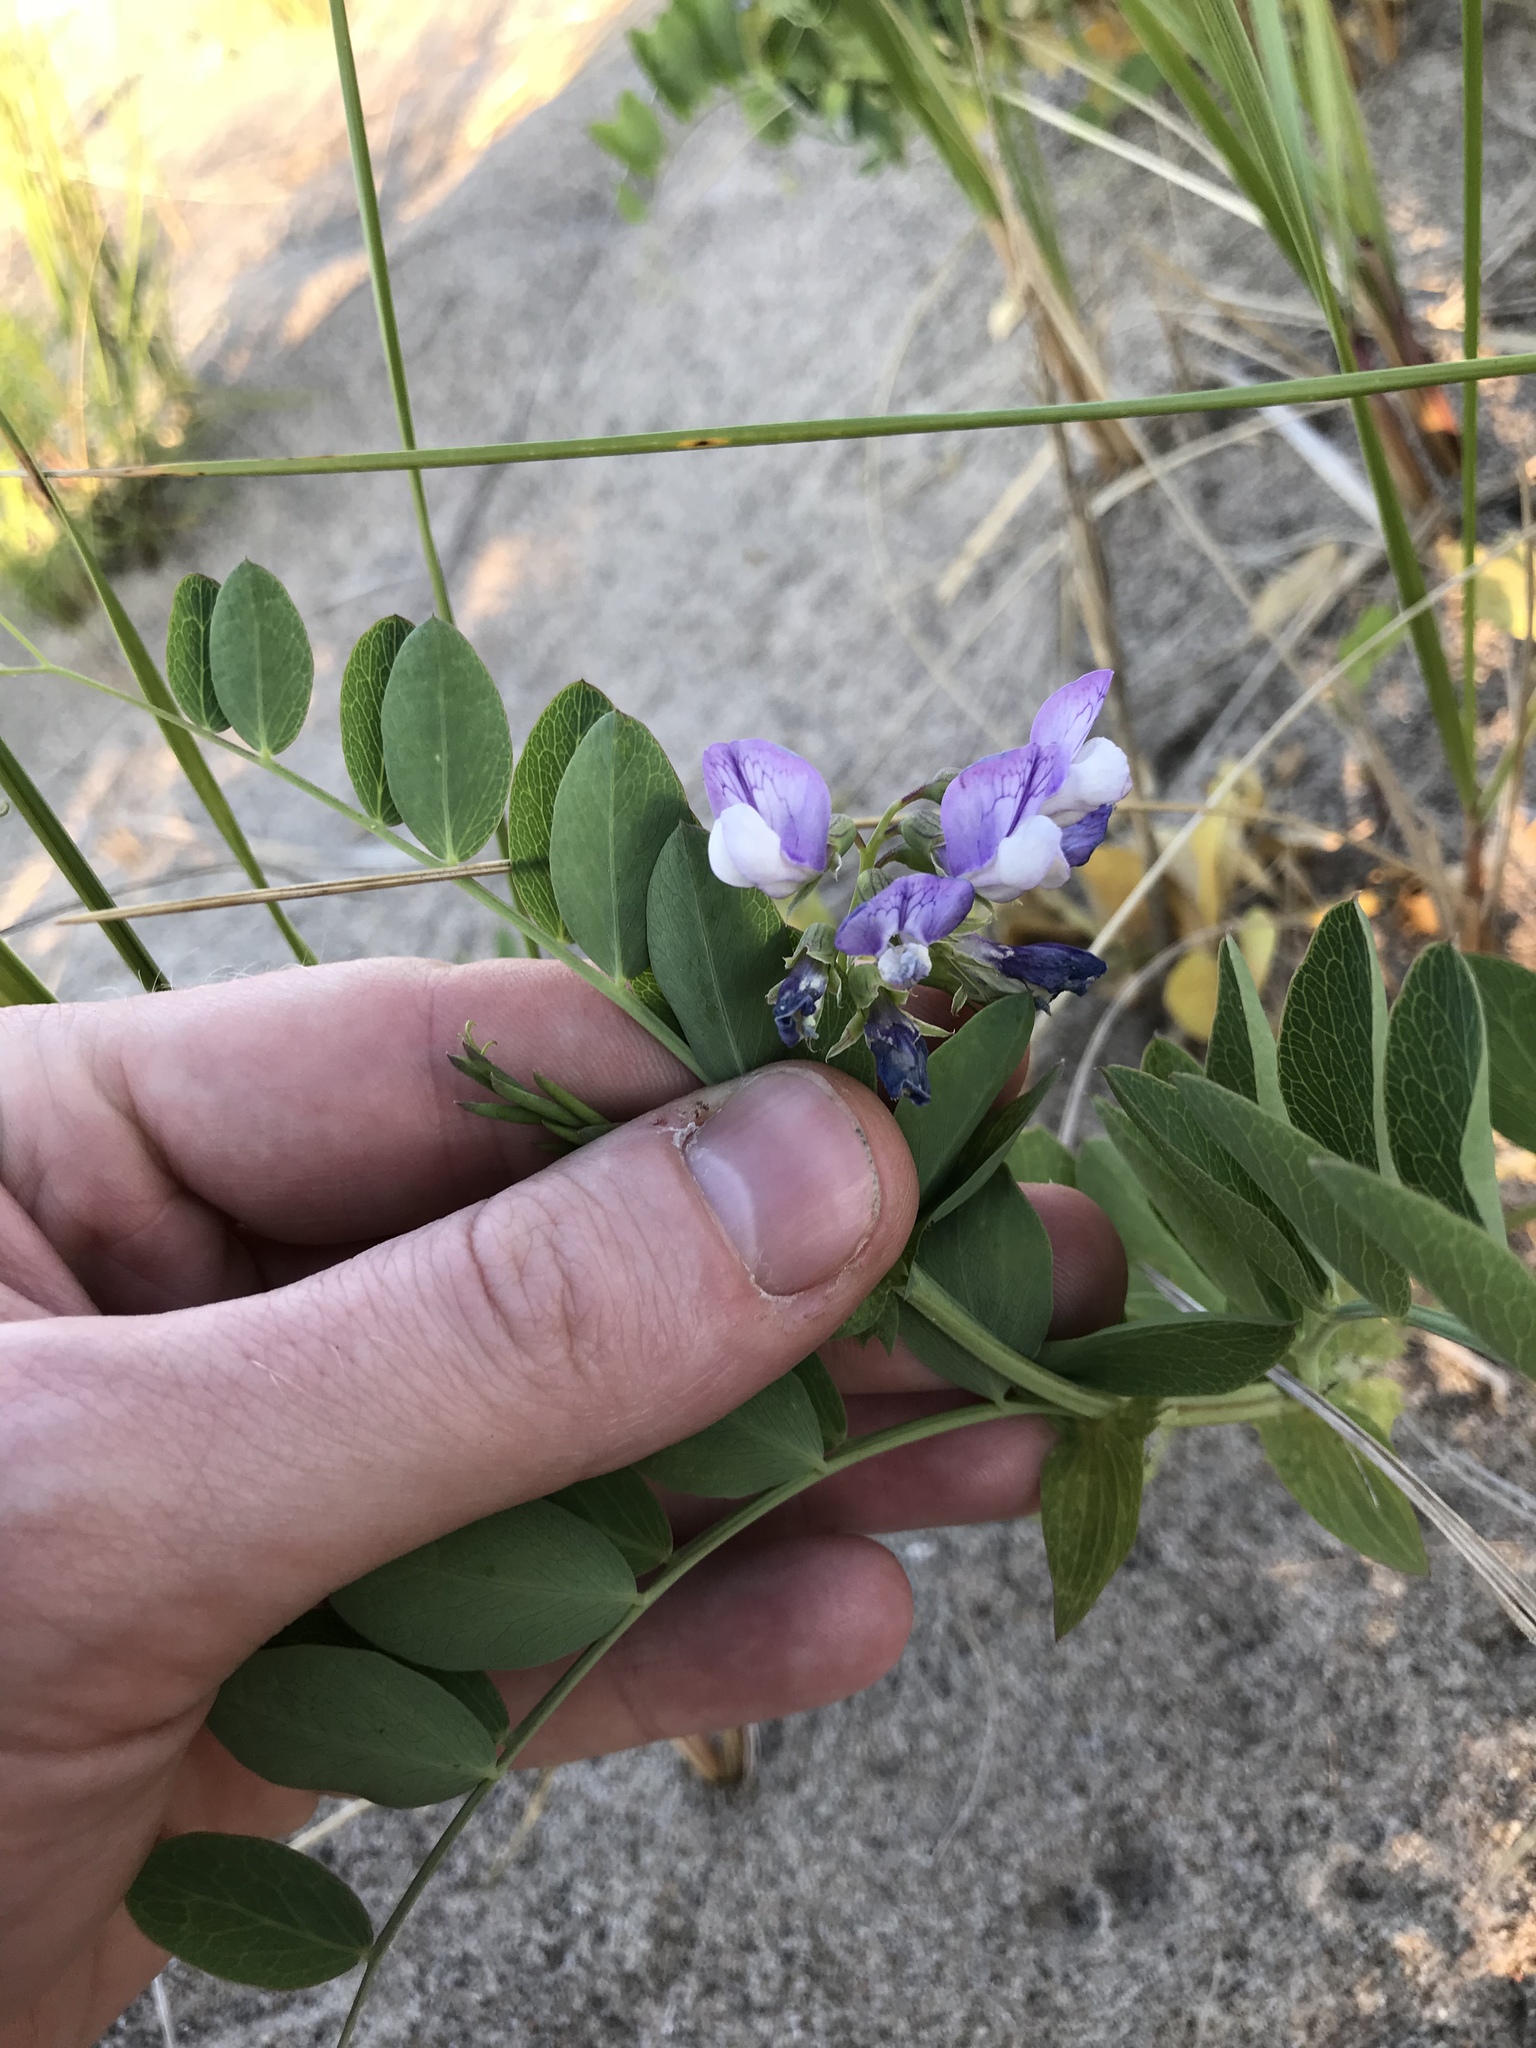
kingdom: Plantae
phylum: Tracheophyta
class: Magnoliopsida
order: Fabales
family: Fabaceae
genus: Lathyrus
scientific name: Lathyrus japonicus
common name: Sea pea
